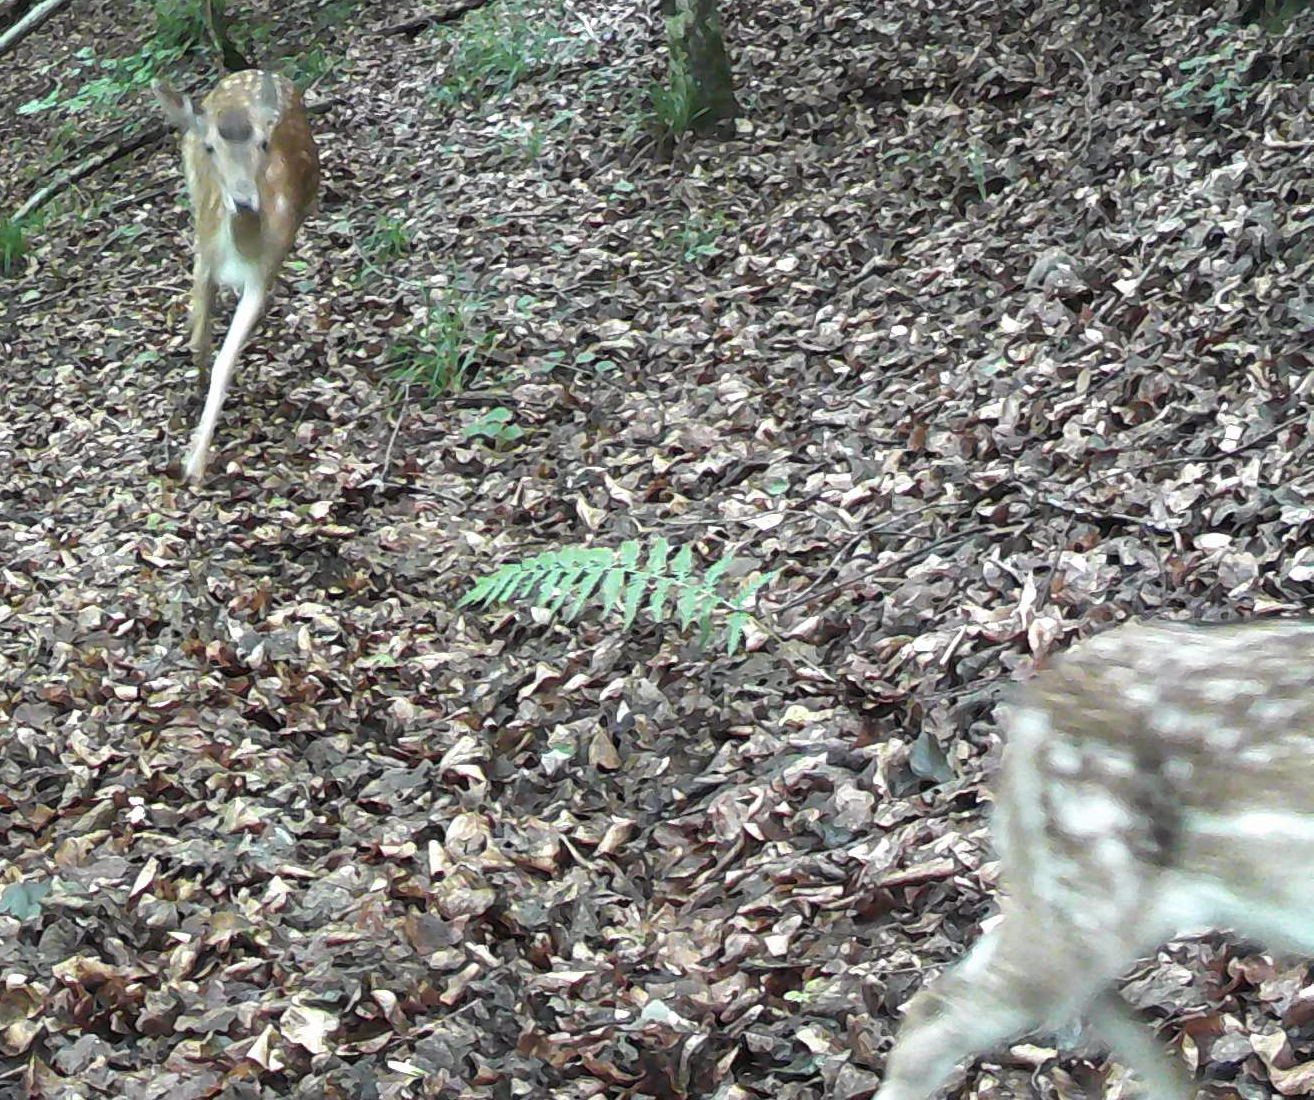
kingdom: Animalia
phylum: Chordata
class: Mammalia
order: Artiodactyla
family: Cervidae
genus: Dama
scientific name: Dama dama
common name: Fallow deer
